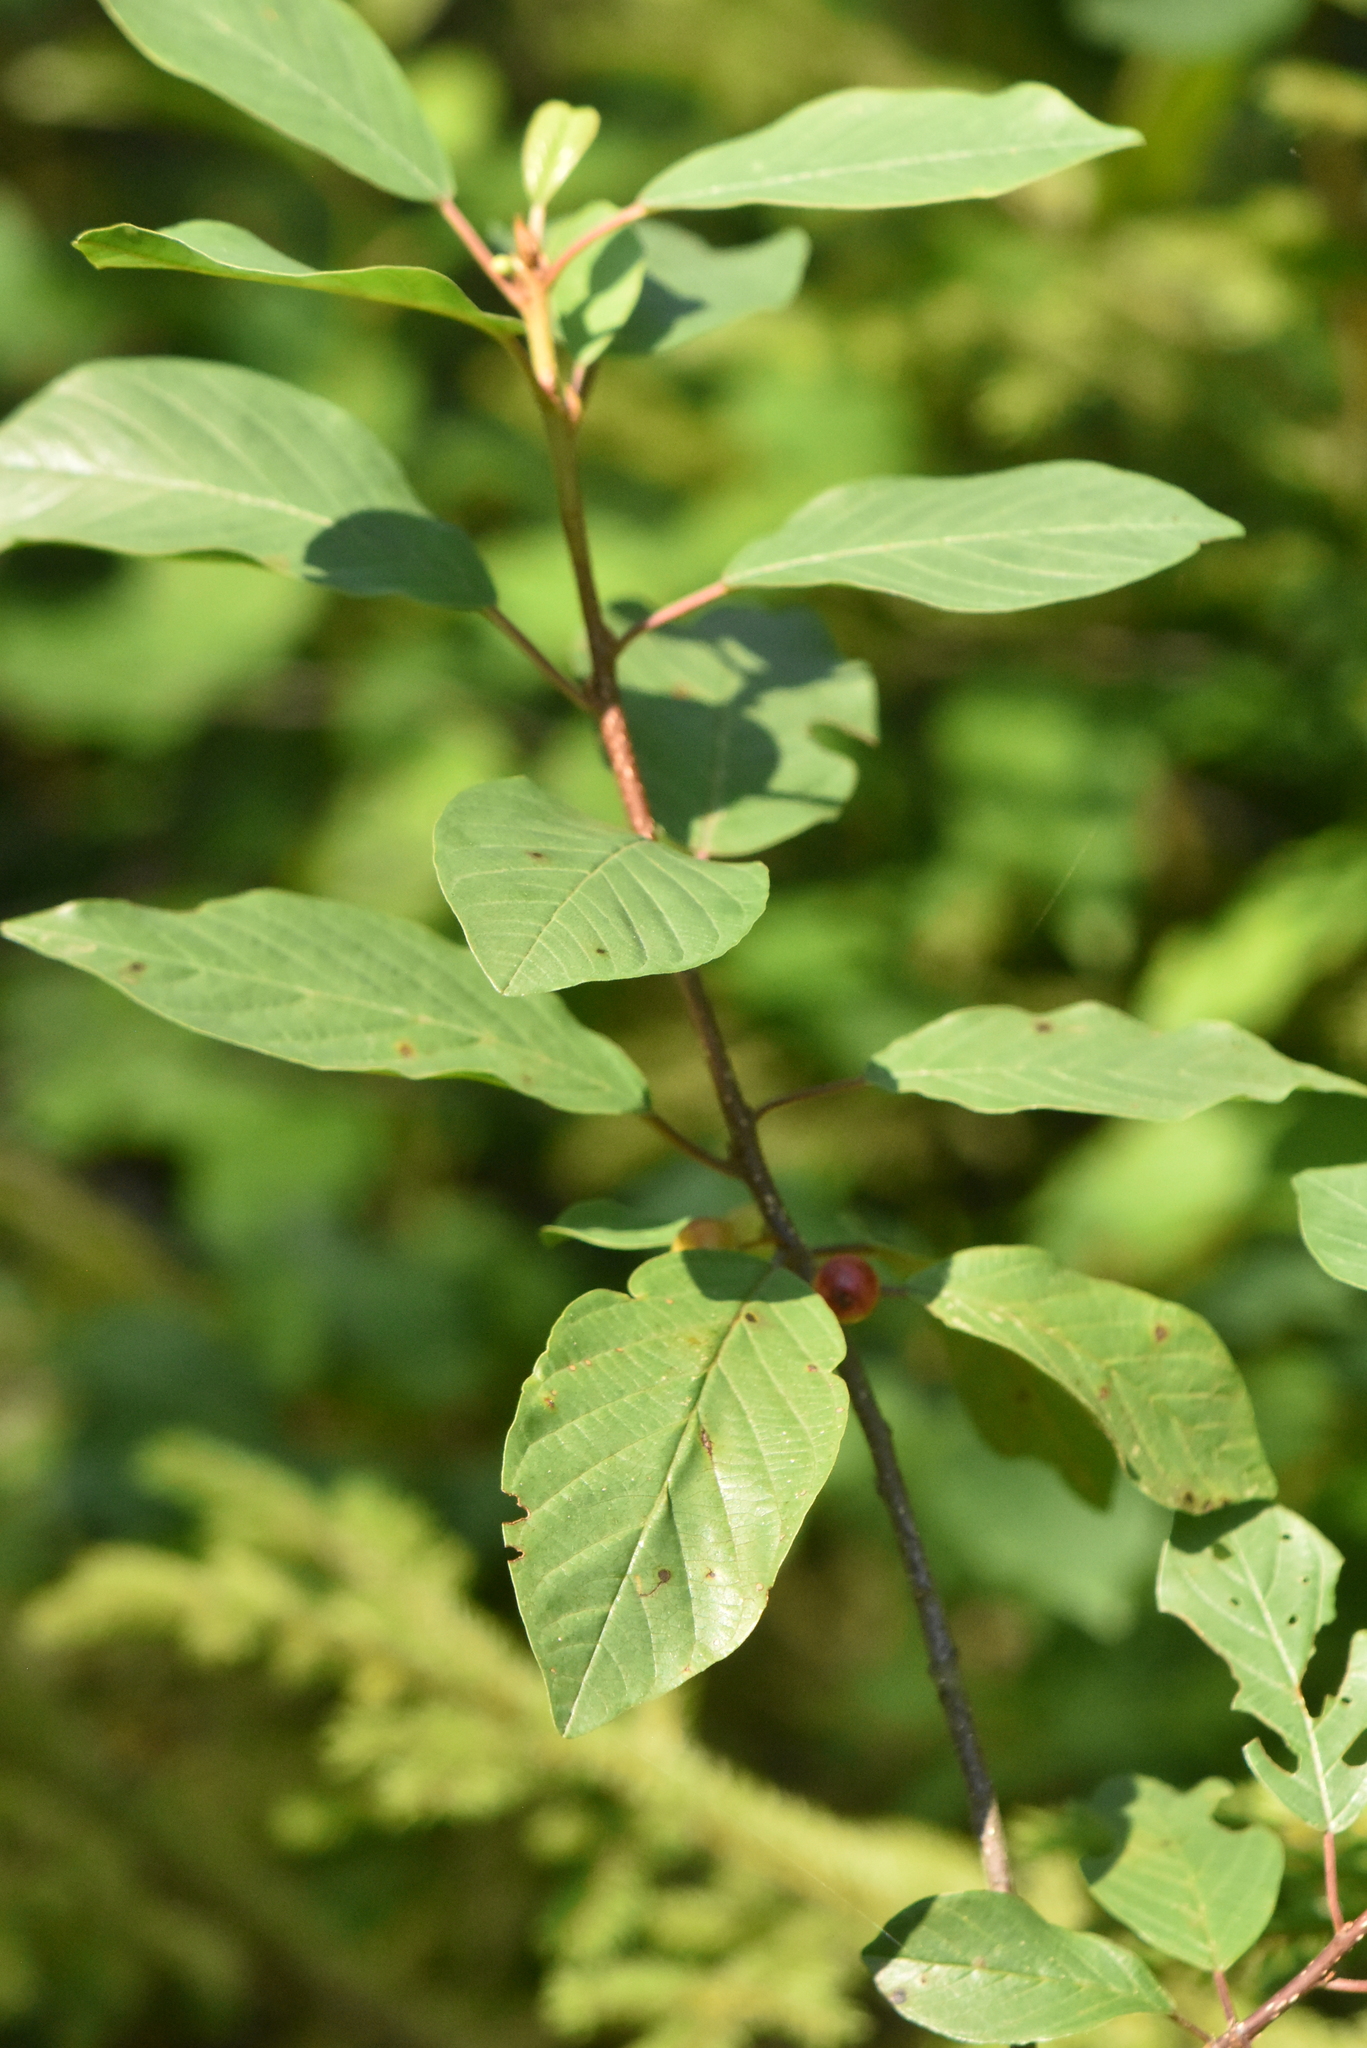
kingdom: Plantae
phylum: Tracheophyta
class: Magnoliopsida
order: Rosales
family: Rhamnaceae
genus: Frangula
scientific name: Frangula alnus
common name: Alder buckthorn
